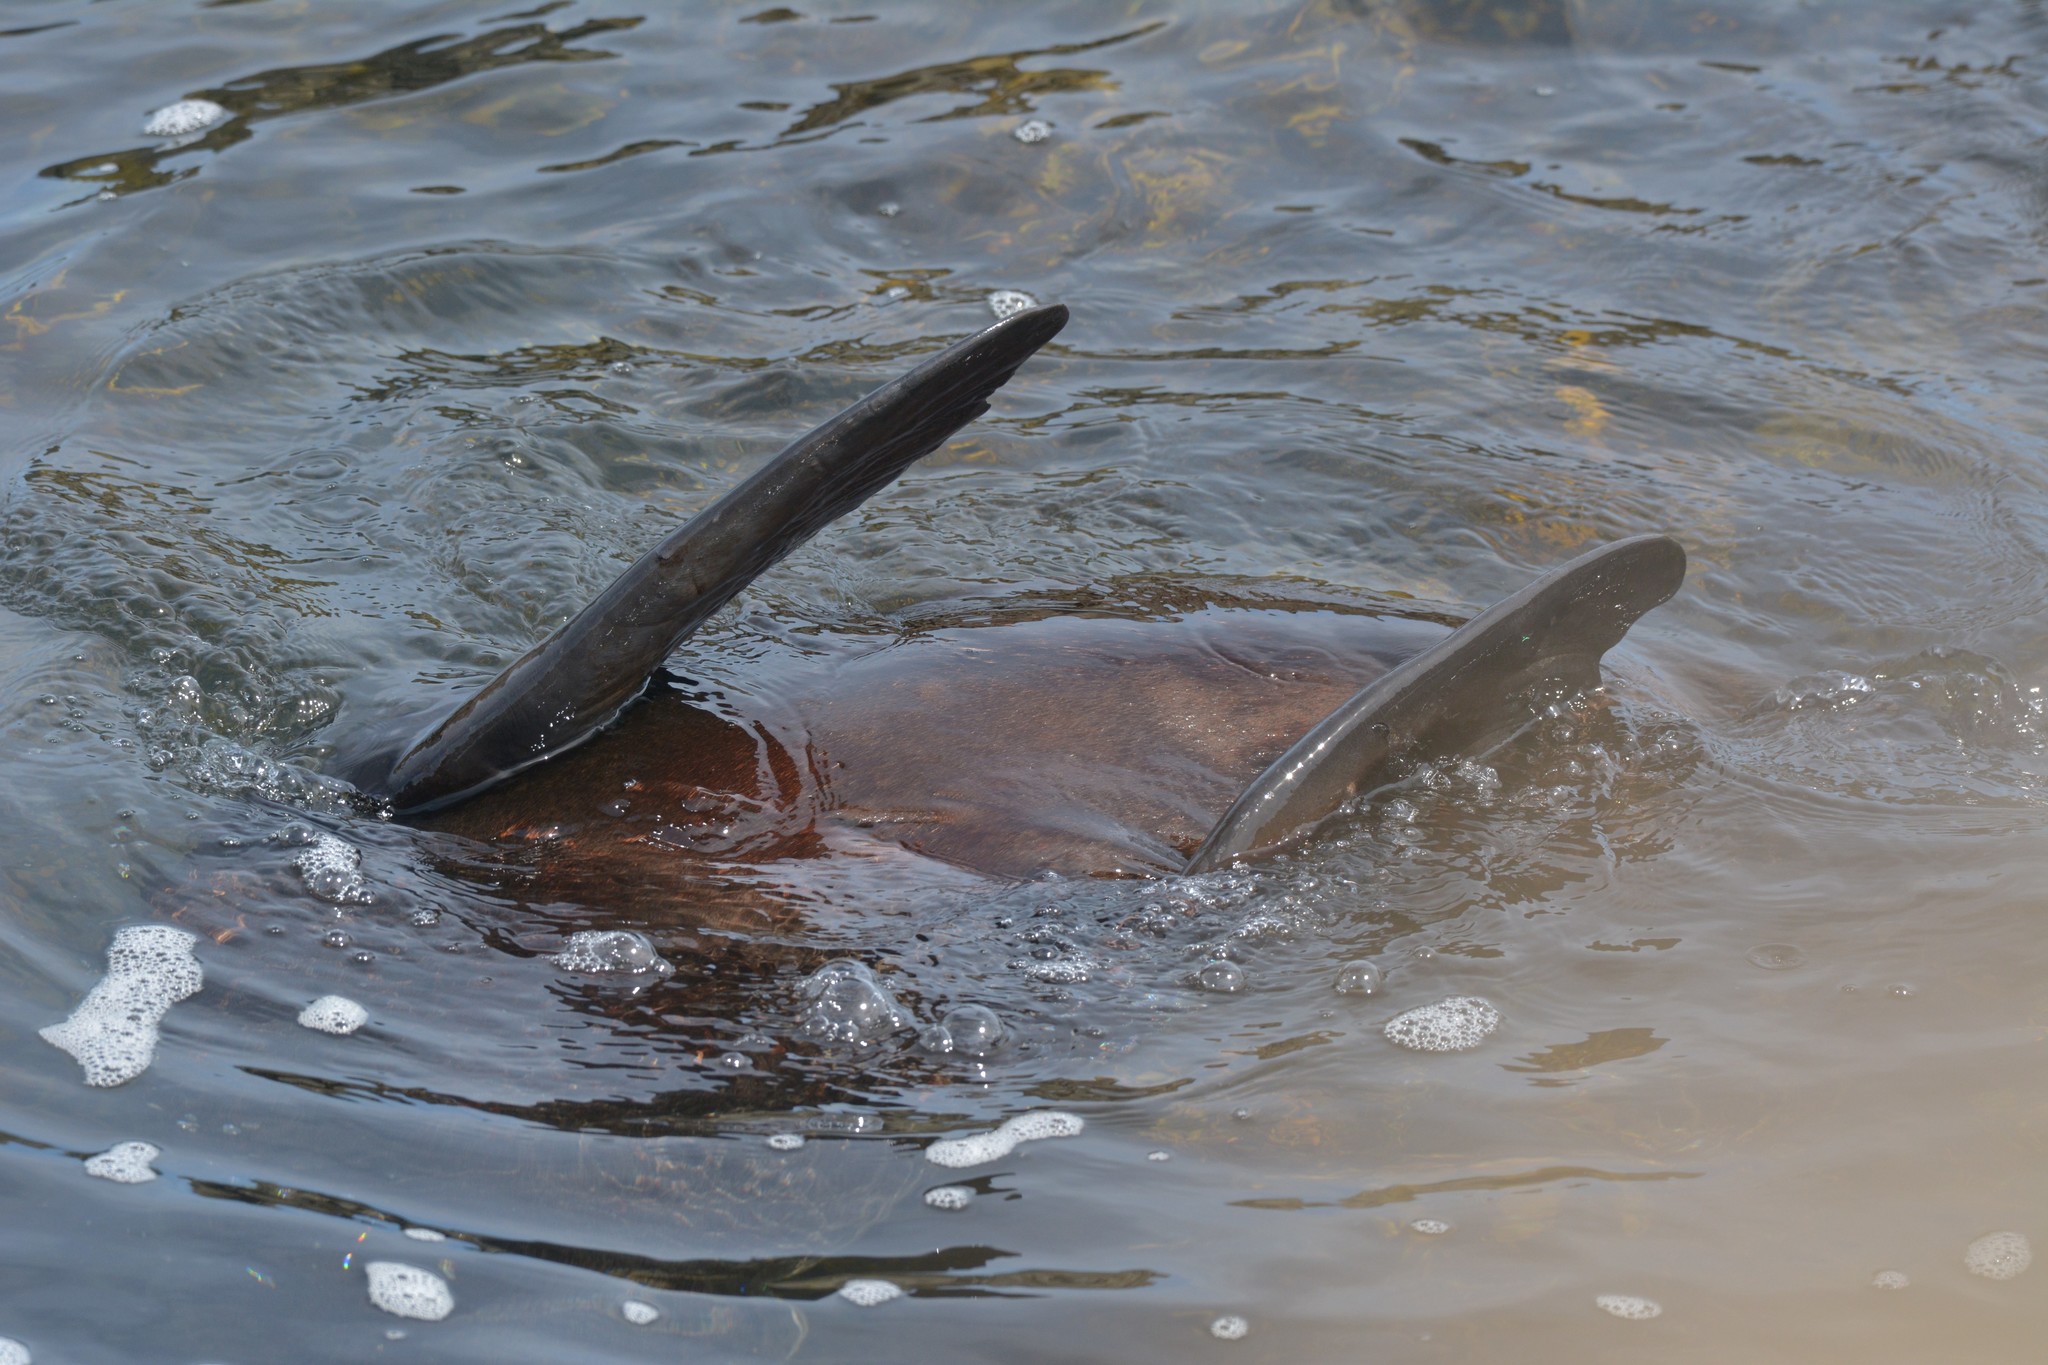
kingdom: Animalia
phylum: Chordata
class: Mammalia
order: Carnivora
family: Otariidae
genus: Arctocephalus
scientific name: Arctocephalus forsteri
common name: New zealand fur seal
